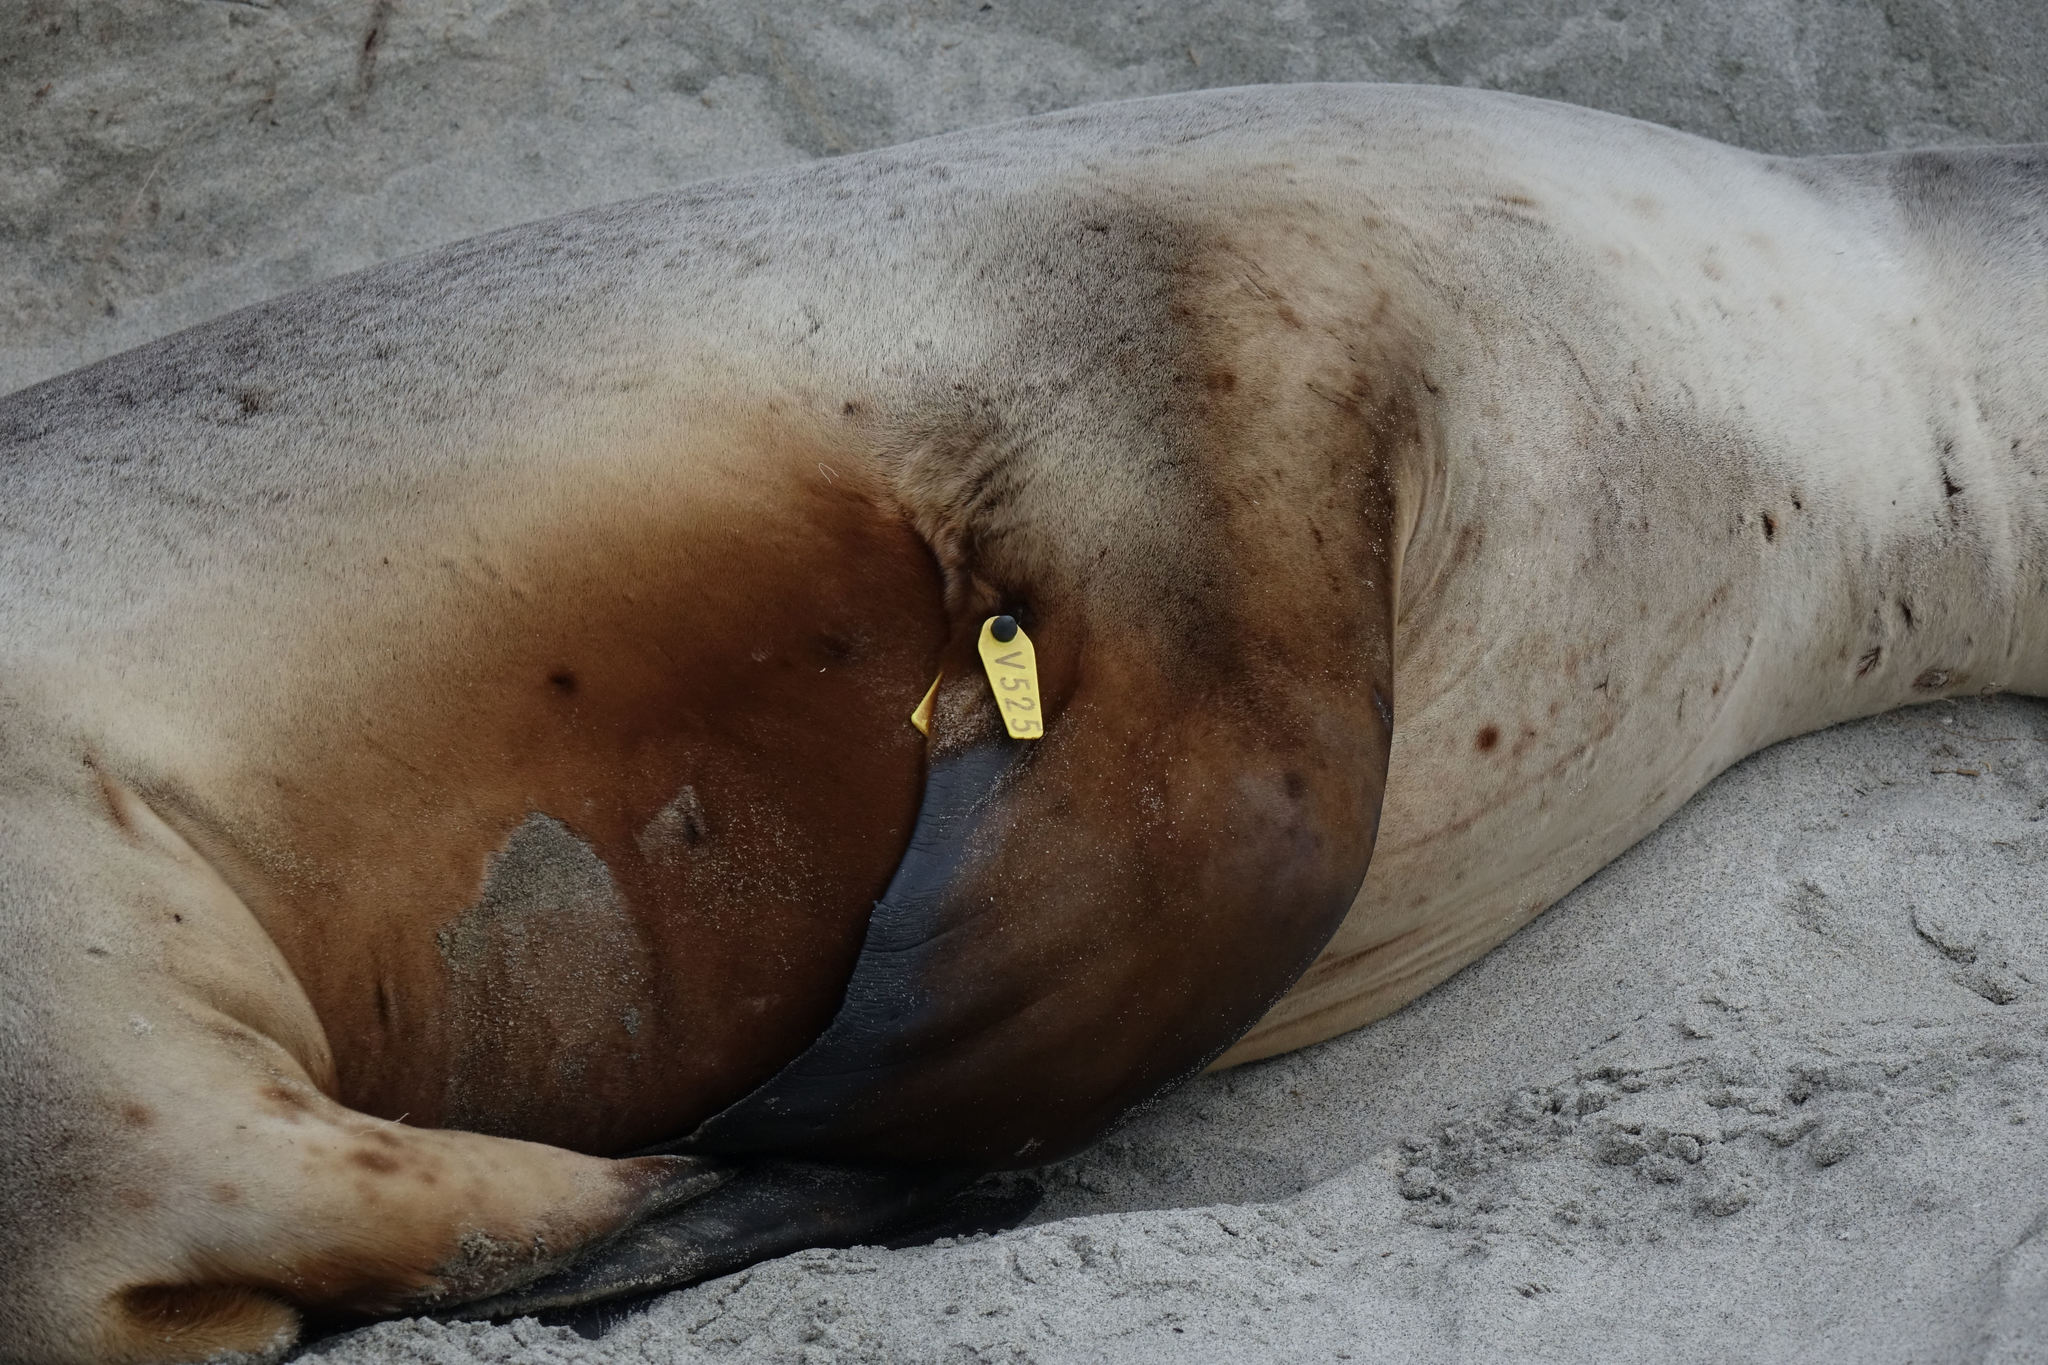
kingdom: Animalia
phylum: Chordata
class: Mammalia
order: Carnivora
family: Otariidae
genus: Phocarctos
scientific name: Phocarctos hookeri
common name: New zealand sea lion
